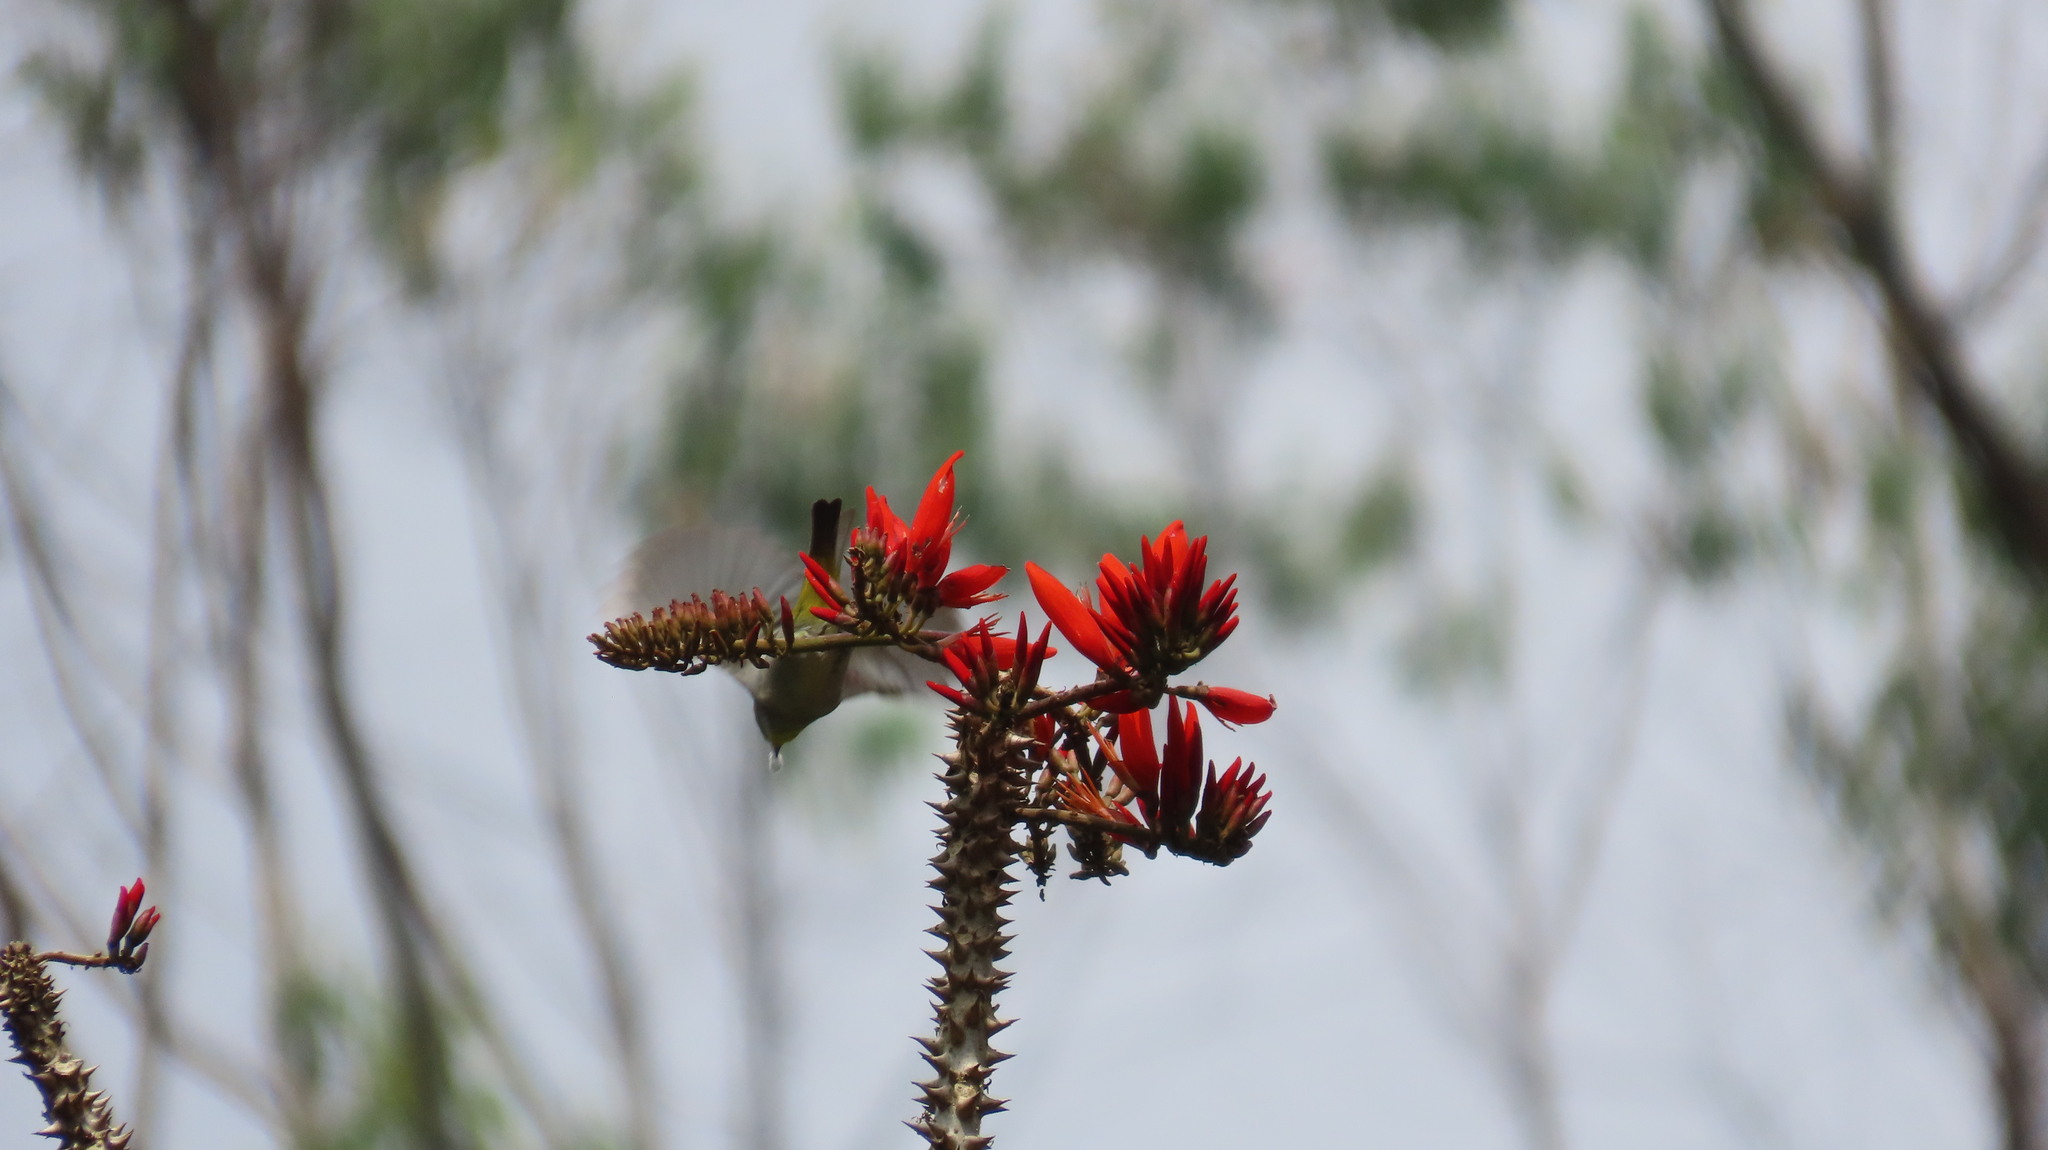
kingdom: Animalia
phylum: Chordata
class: Aves
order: Passeriformes
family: Zosteropidae
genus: Zosterops
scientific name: Zosterops palpebrosus
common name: Oriental white-eye
